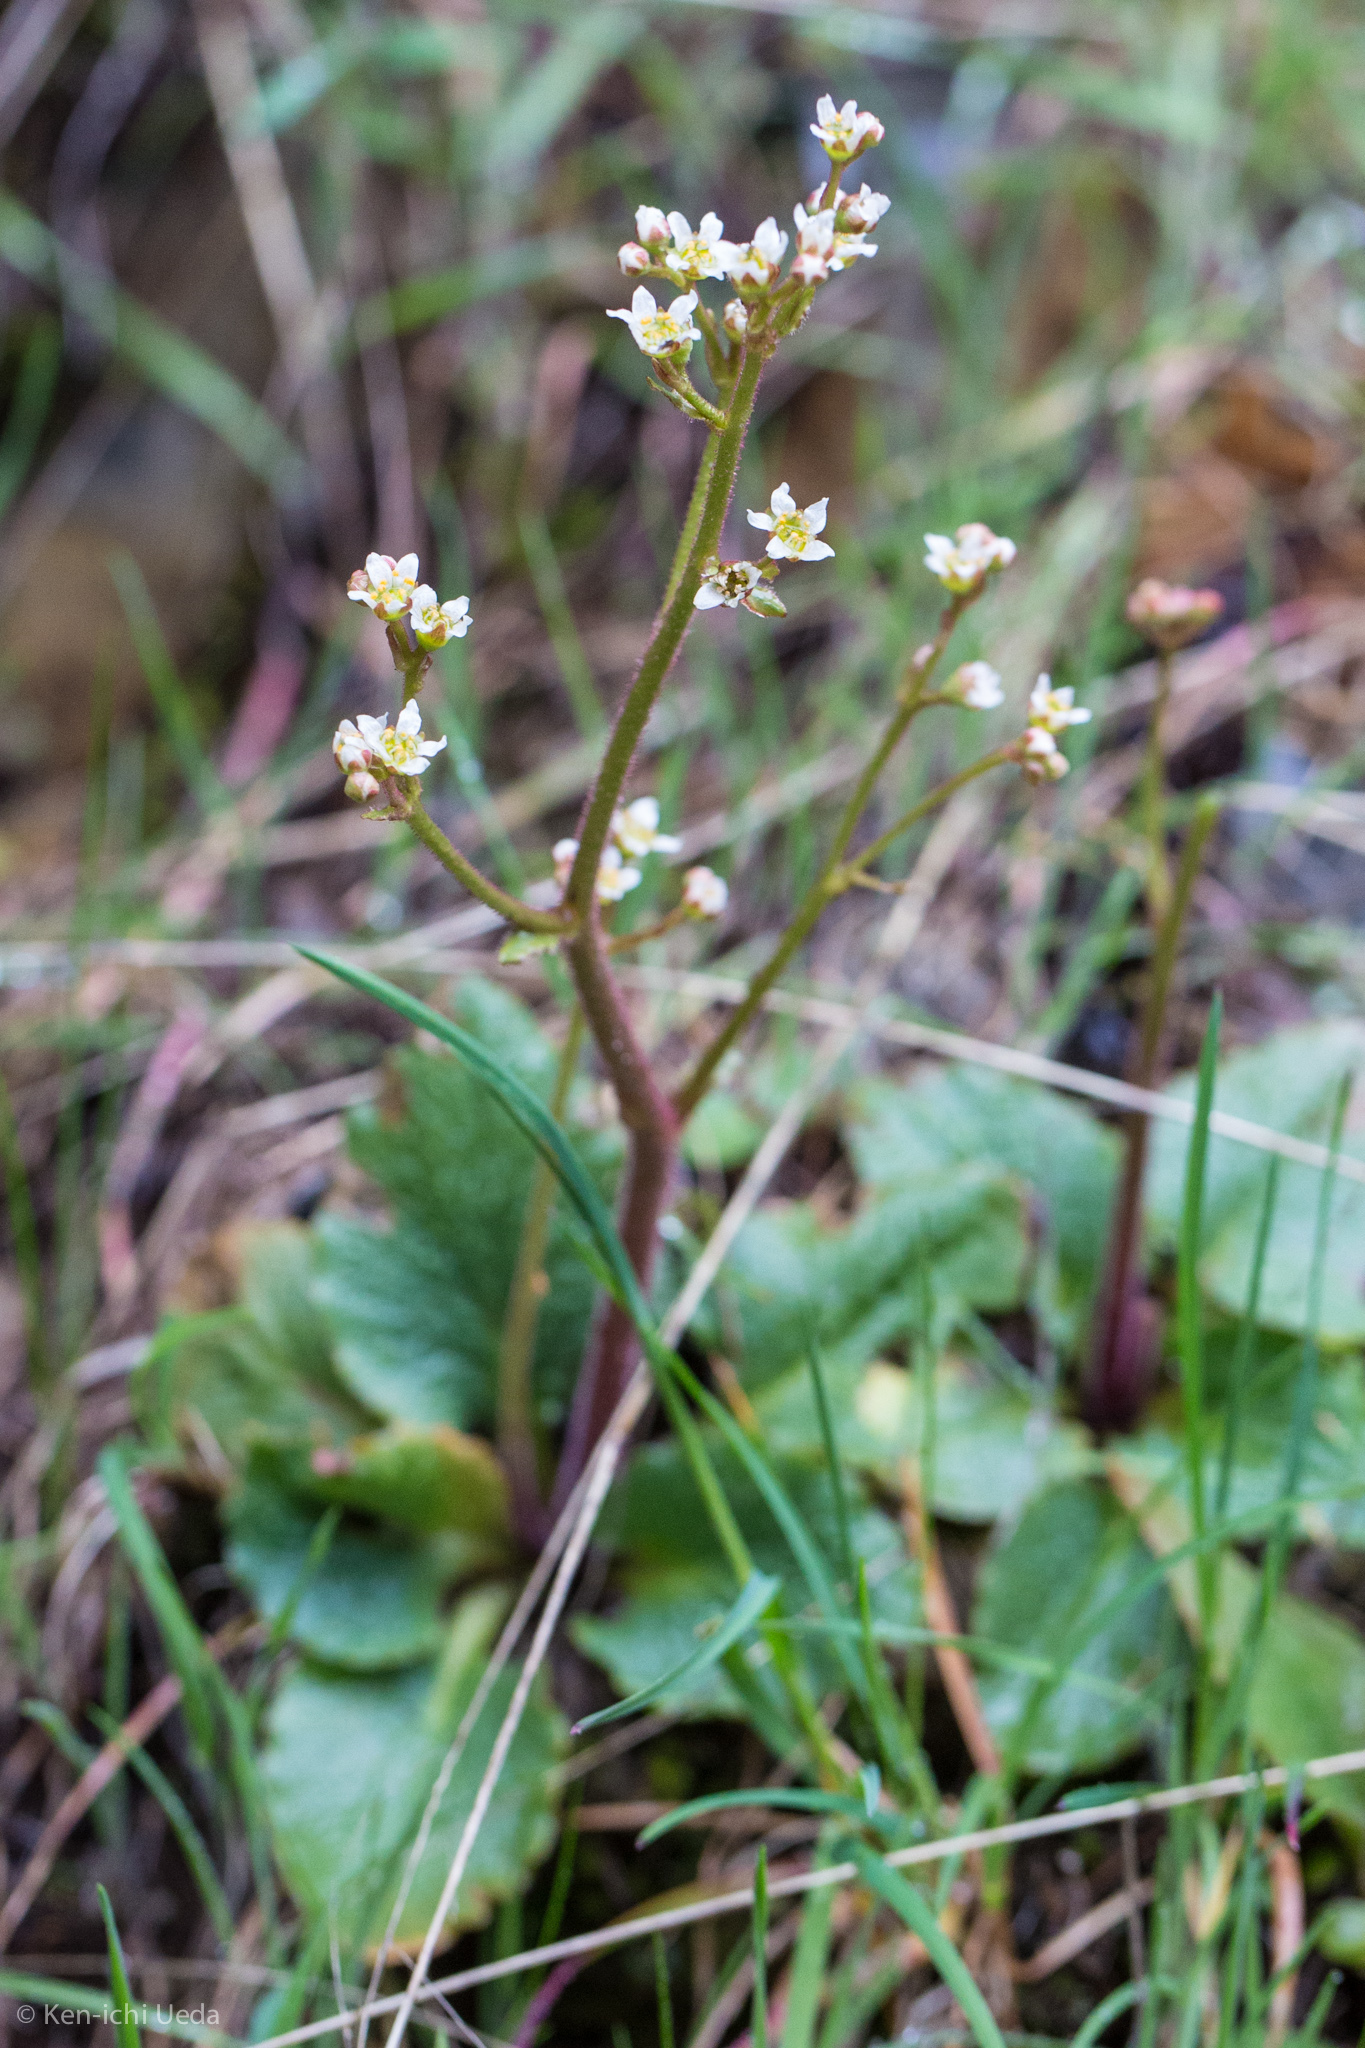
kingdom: Plantae
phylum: Tracheophyta
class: Magnoliopsida
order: Saxifragales
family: Saxifragaceae
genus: Micranthes
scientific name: Micranthes integrifolia
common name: Wholeleaf saxifrage
